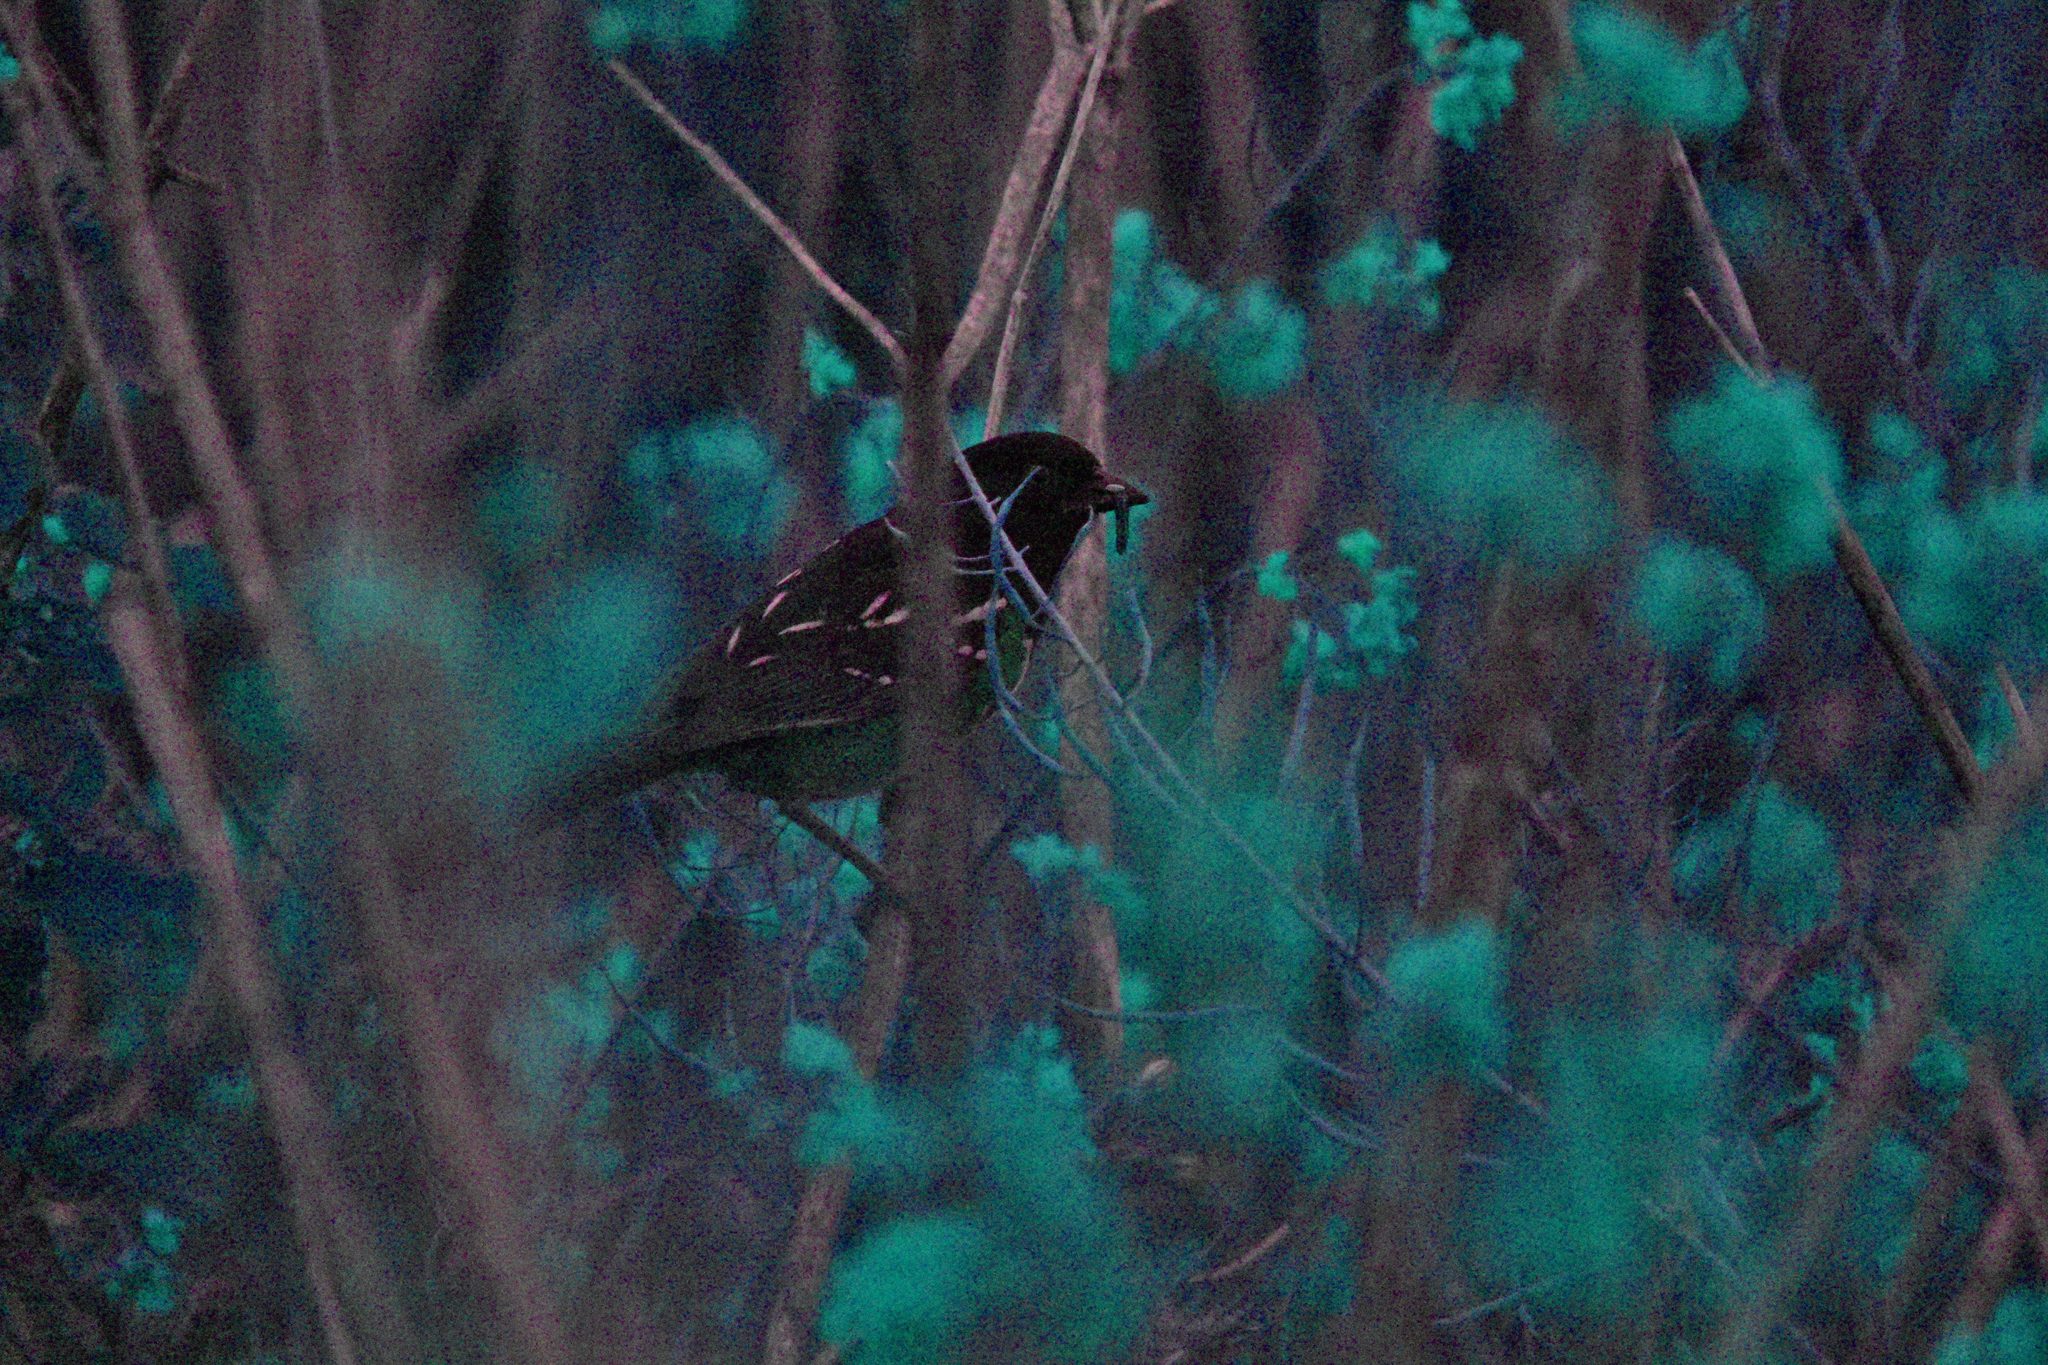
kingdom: Animalia
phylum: Chordata
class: Aves
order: Passeriformes
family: Passerellidae
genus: Pipilo
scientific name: Pipilo maculatus
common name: Spotted towhee
